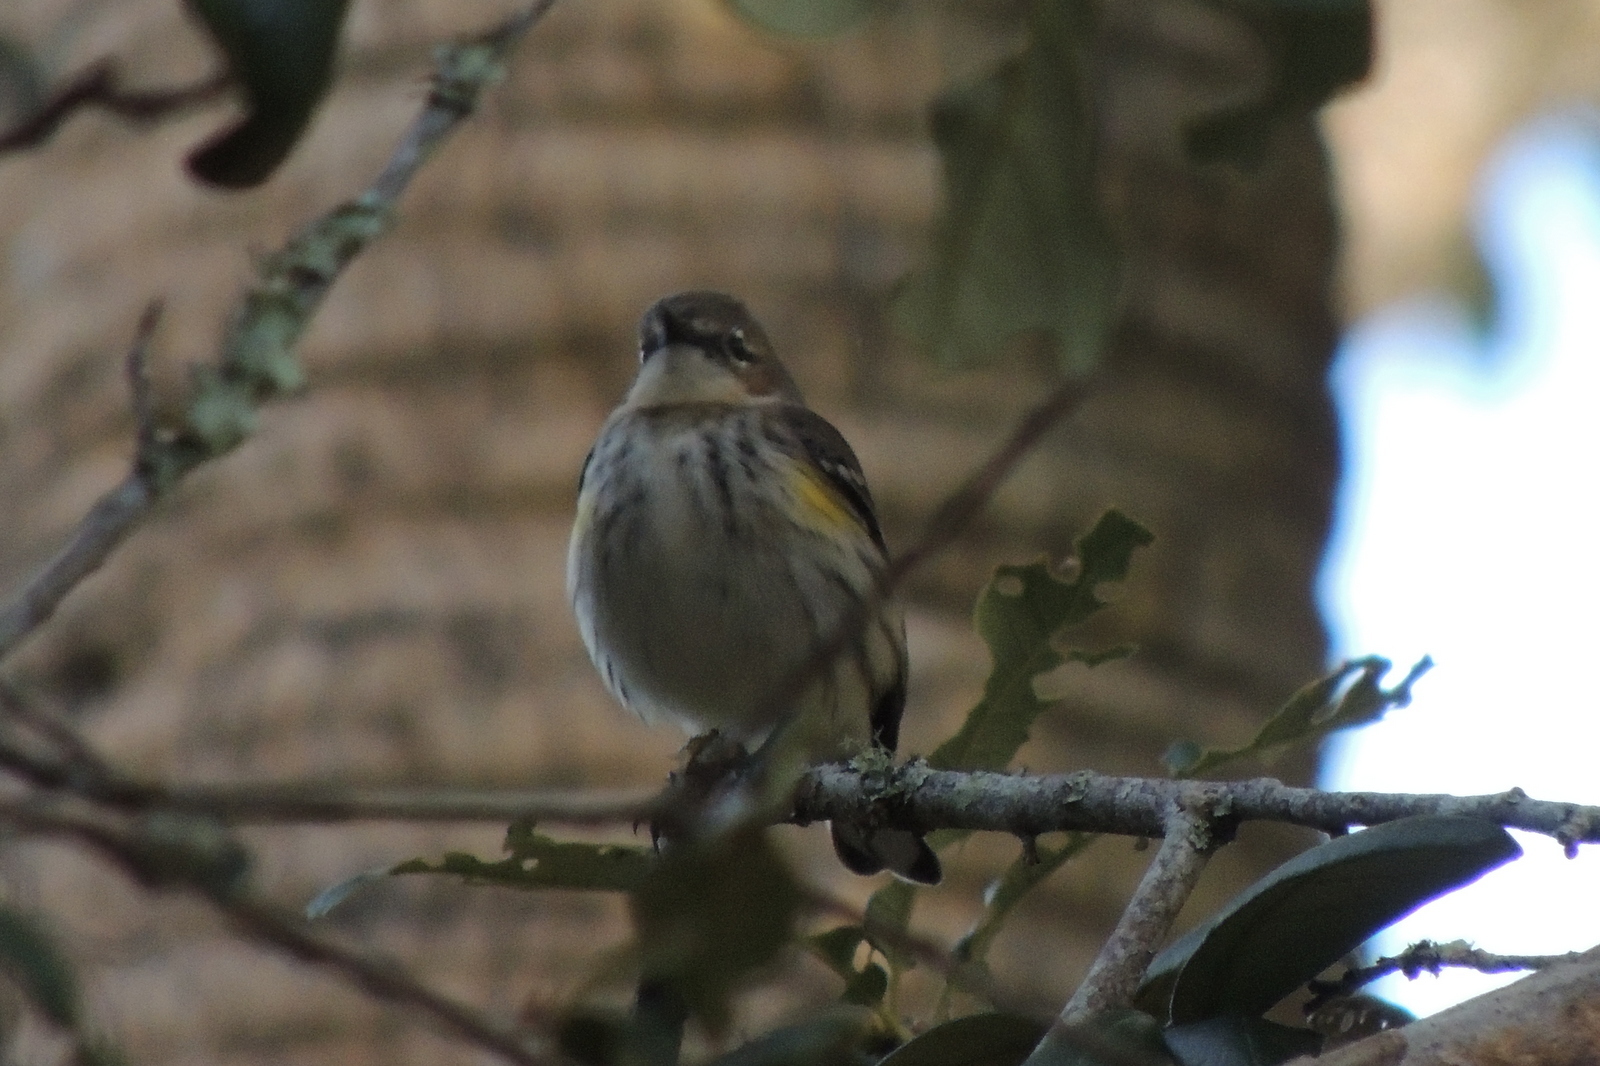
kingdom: Animalia
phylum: Chordata
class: Aves
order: Passeriformes
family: Parulidae
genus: Setophaga
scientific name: Setophaga coronata
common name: Myrtle warbler
